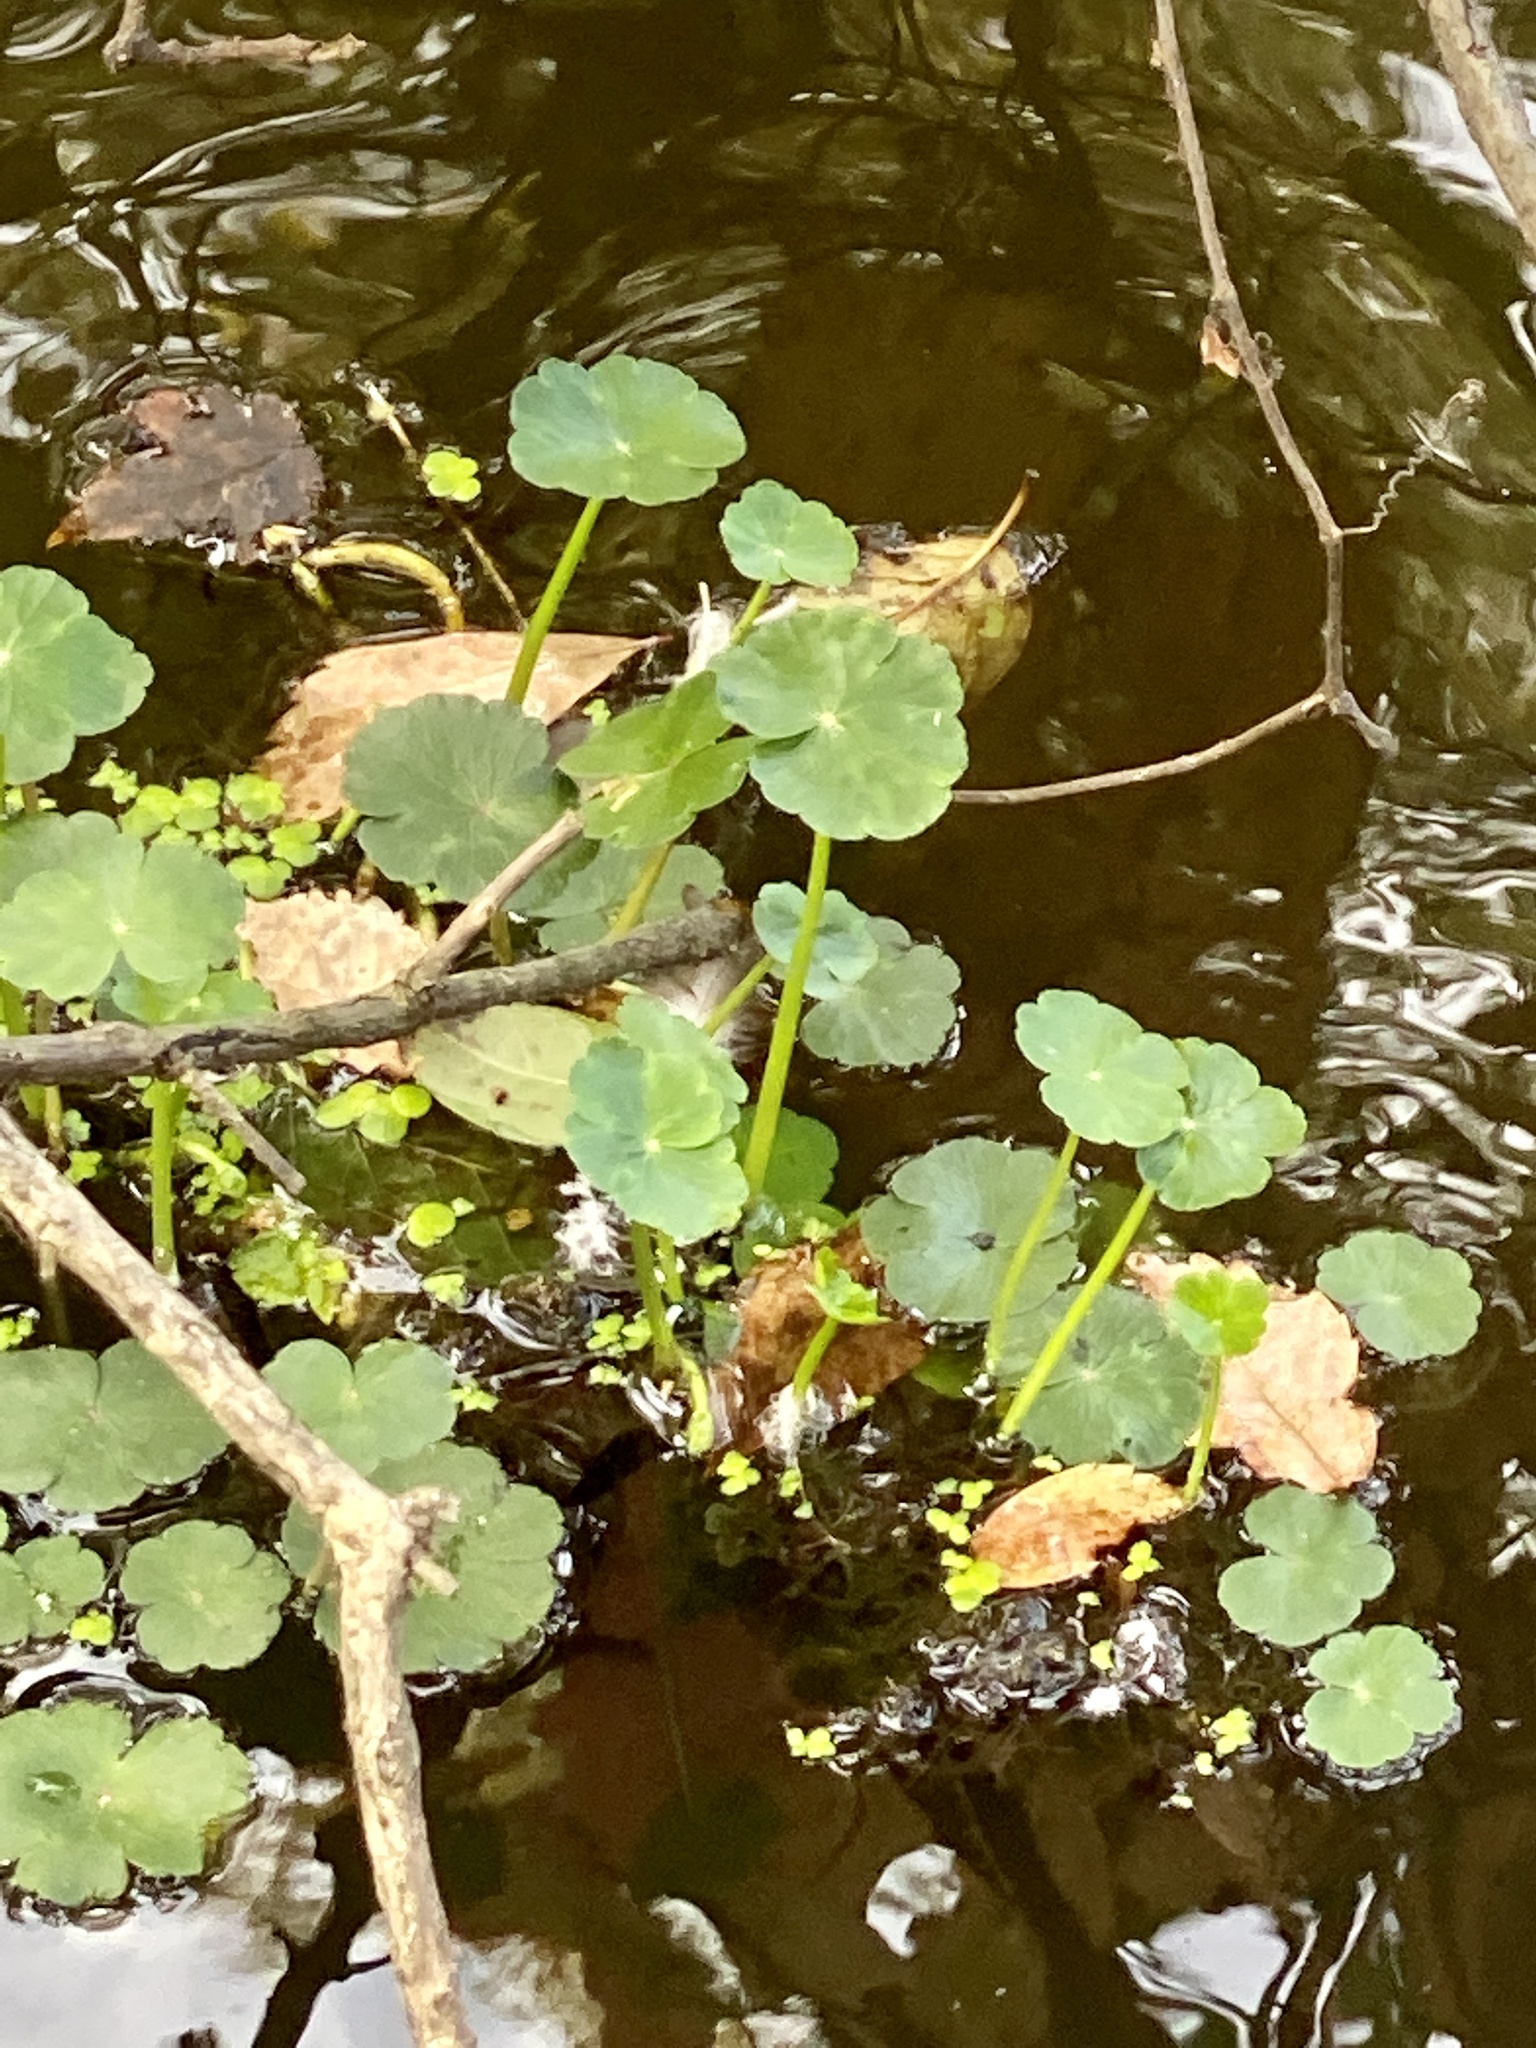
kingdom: Plantae
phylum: Tracheophyta
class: Magnoliopsida
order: Apiales
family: Araliaceae
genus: Hydrocotyle
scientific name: Hydrocotyle ranunculoides
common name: Floating pennywort
